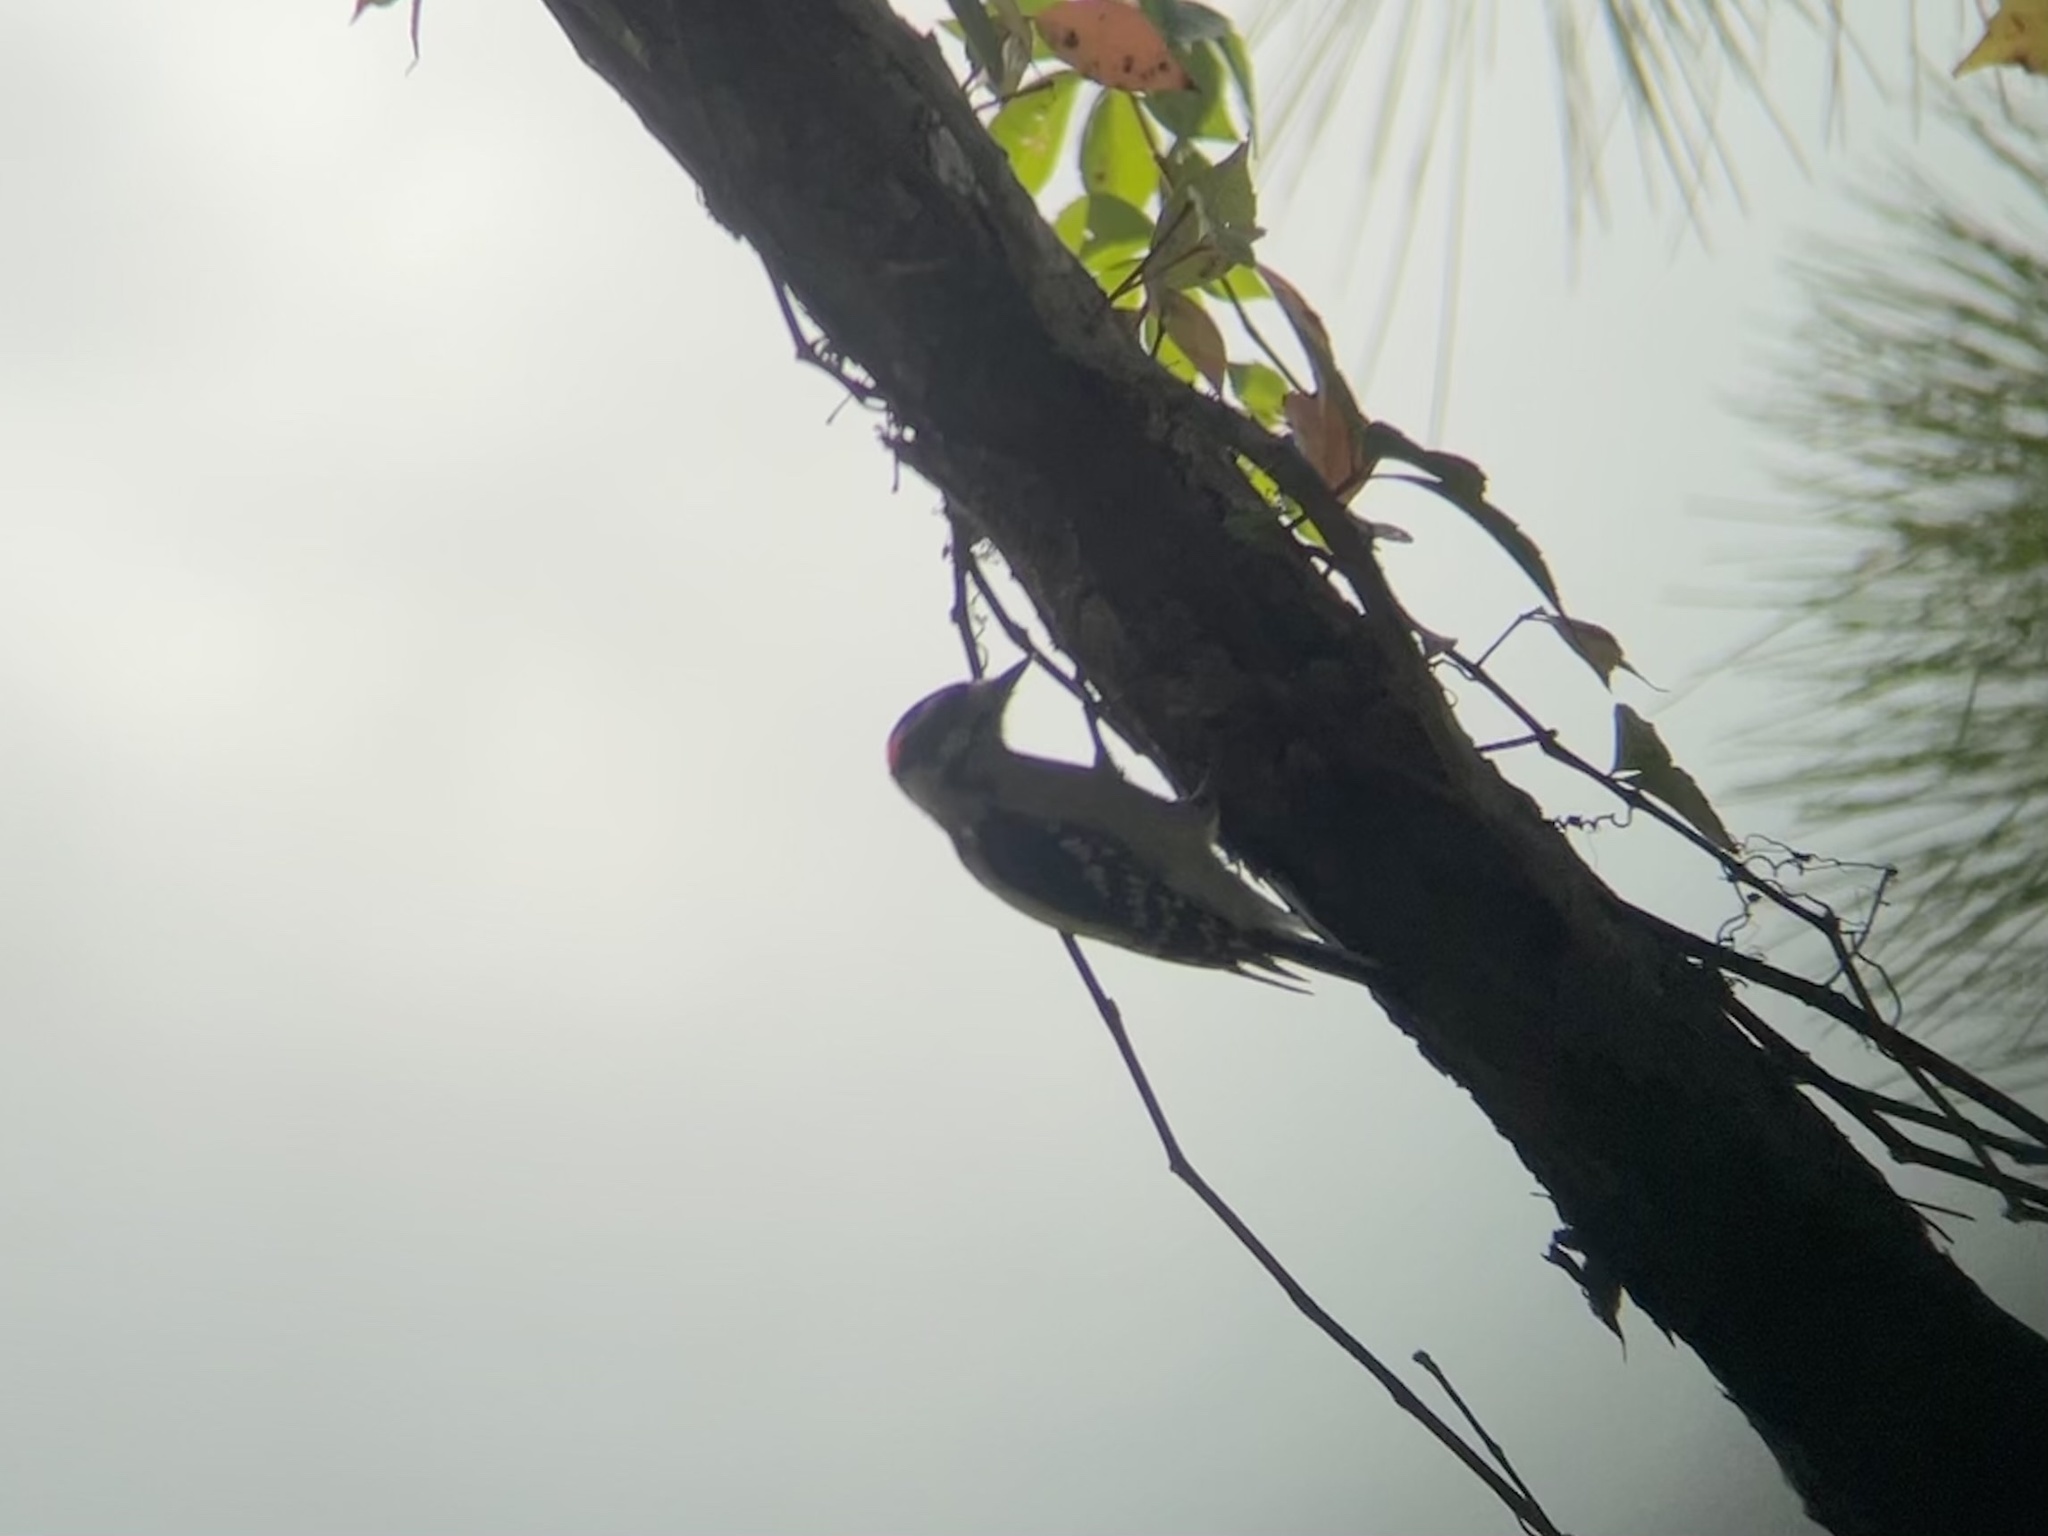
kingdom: Animalia
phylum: Chordata
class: Aves
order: Piciformes
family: Picidae
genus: Dryobates
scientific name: Dryobates pubescens
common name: Downy woodpecker
